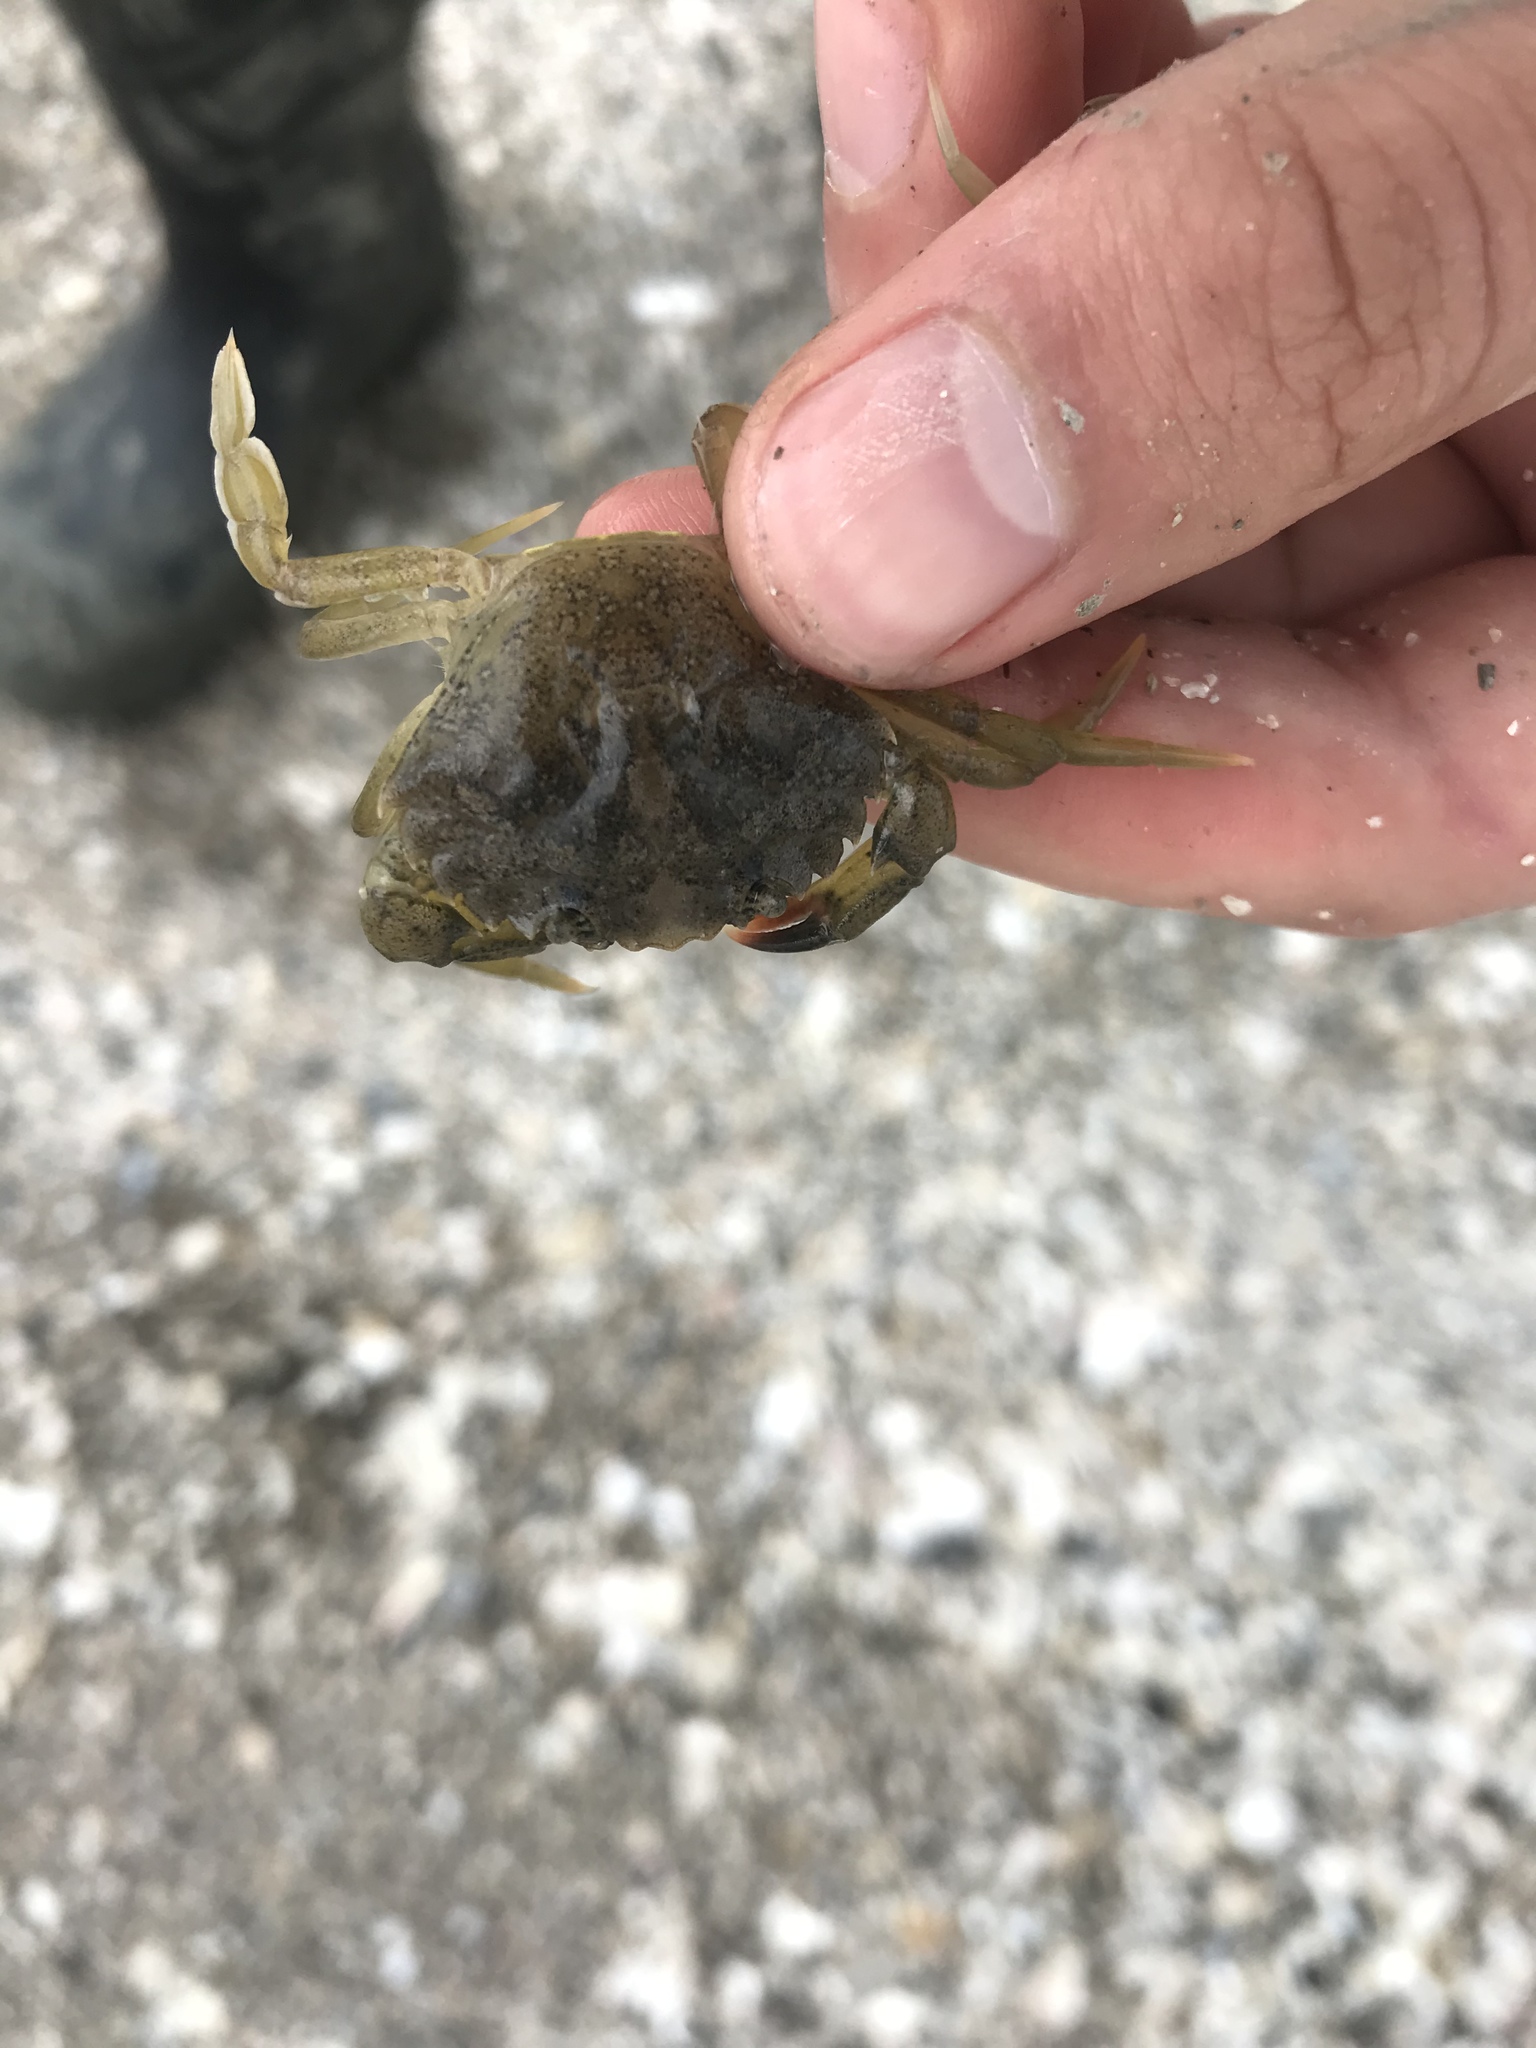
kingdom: Animalia
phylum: Arthropoda
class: Malacostraca
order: Decapoda
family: Carcinidae
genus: Carcinus
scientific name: Carcinus maenas
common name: European green crab
